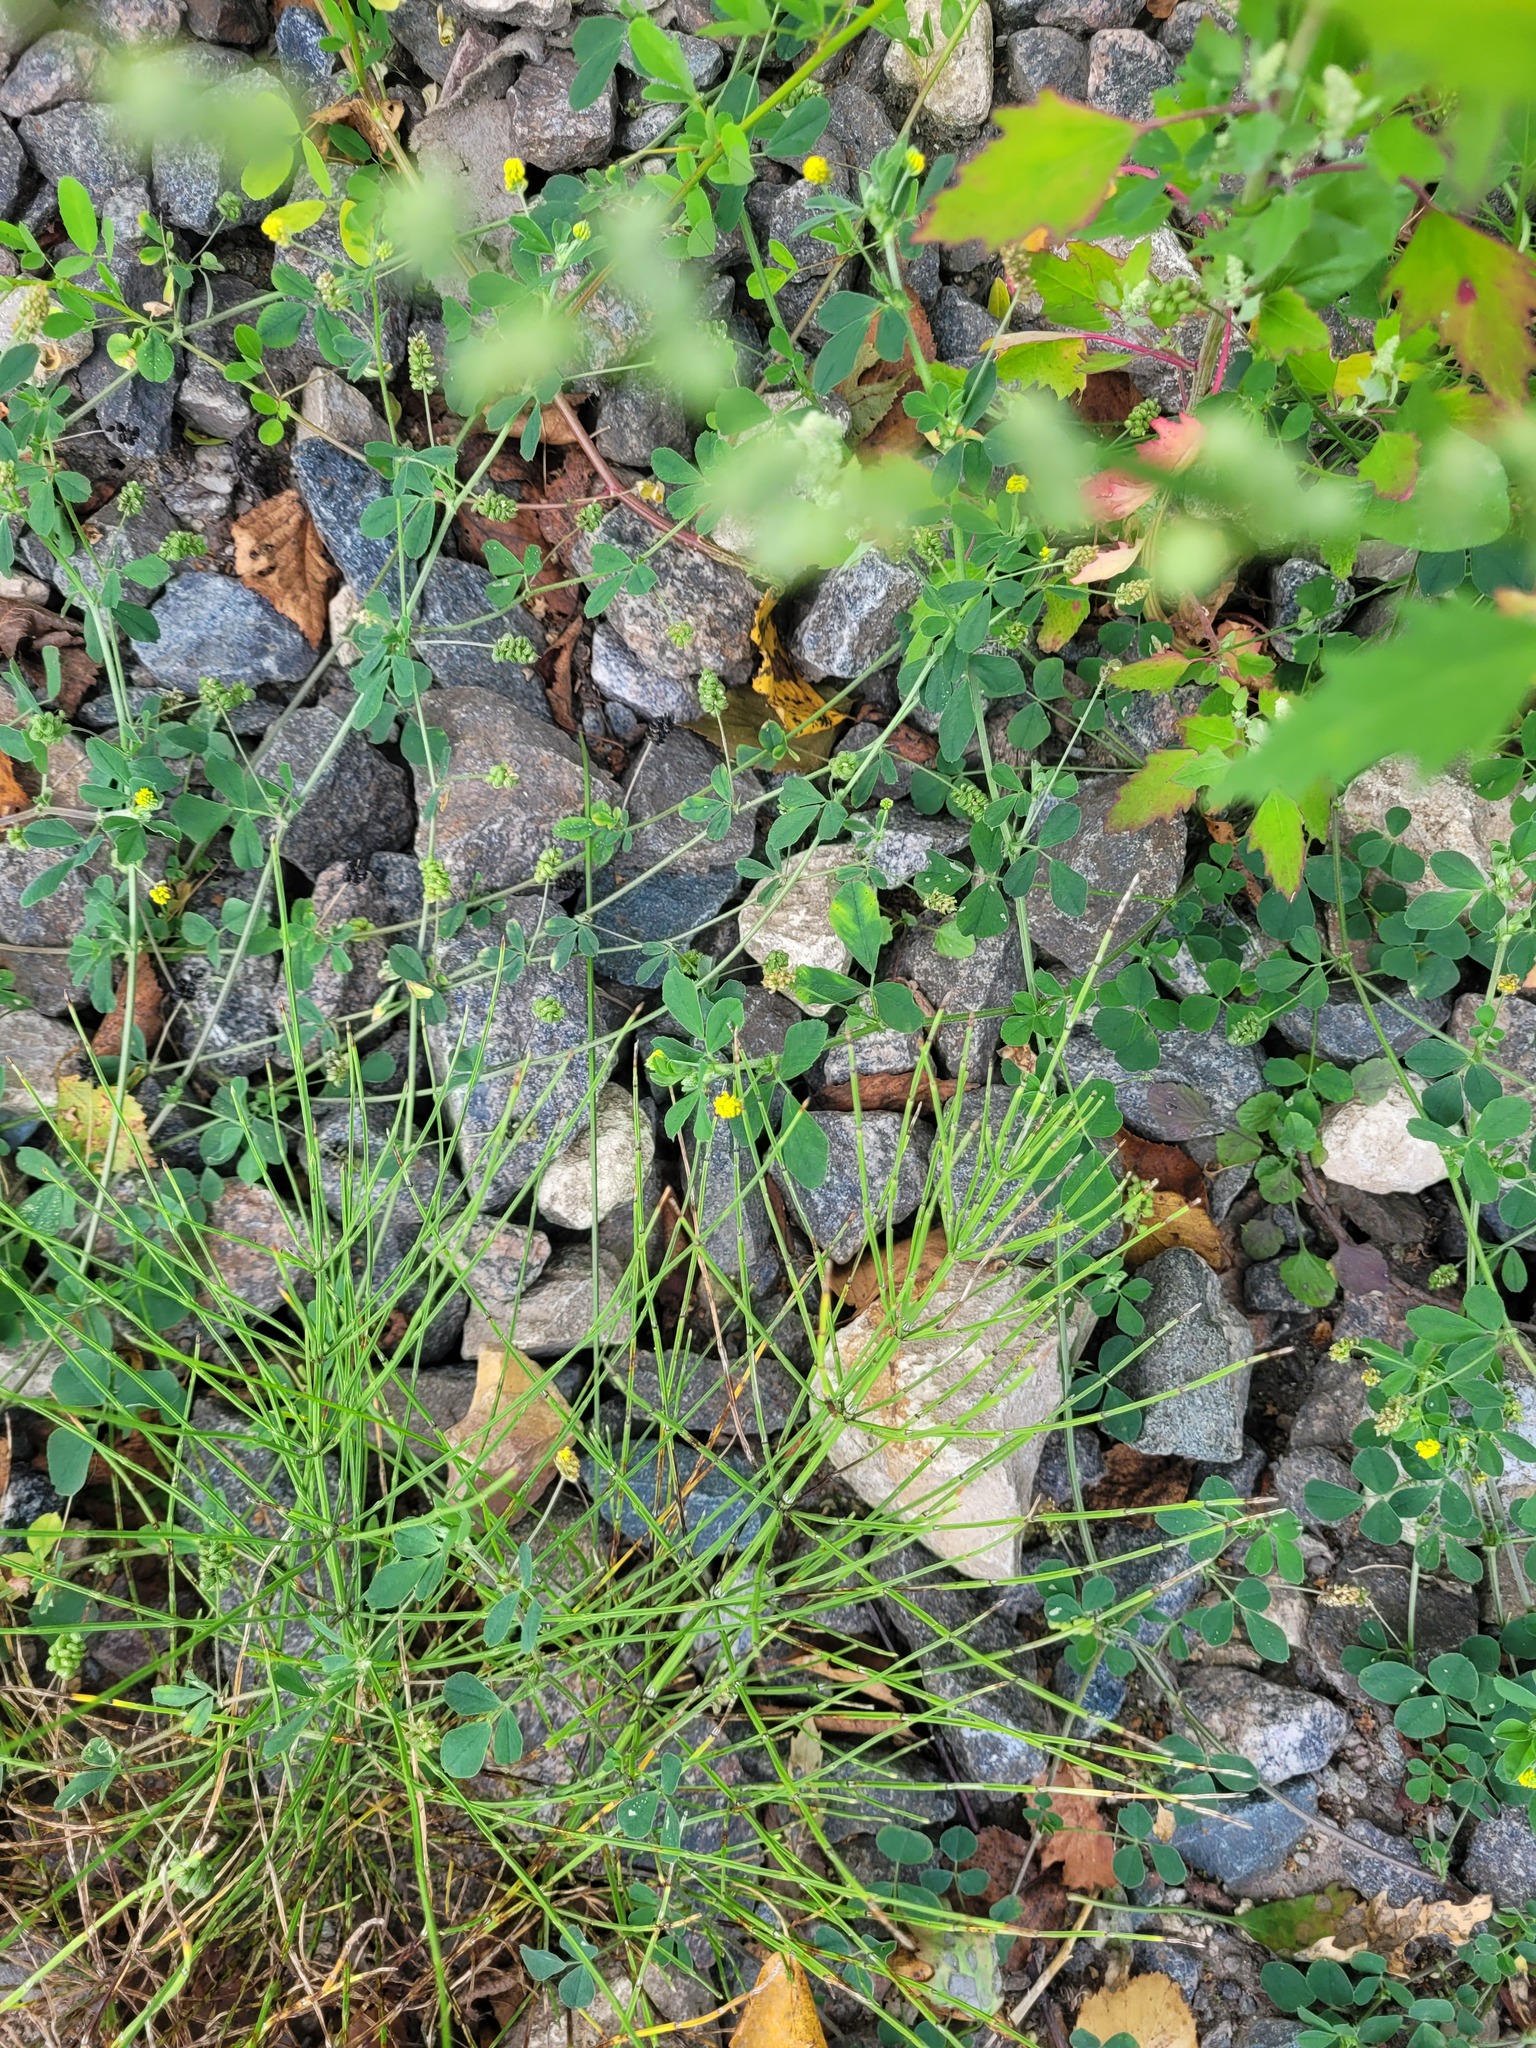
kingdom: Plantae
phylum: Tracheophyta
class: Magnoliopsida
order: Fabales
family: Fabaceae
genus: Medicago
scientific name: Medicago lupulina
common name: Black medick
